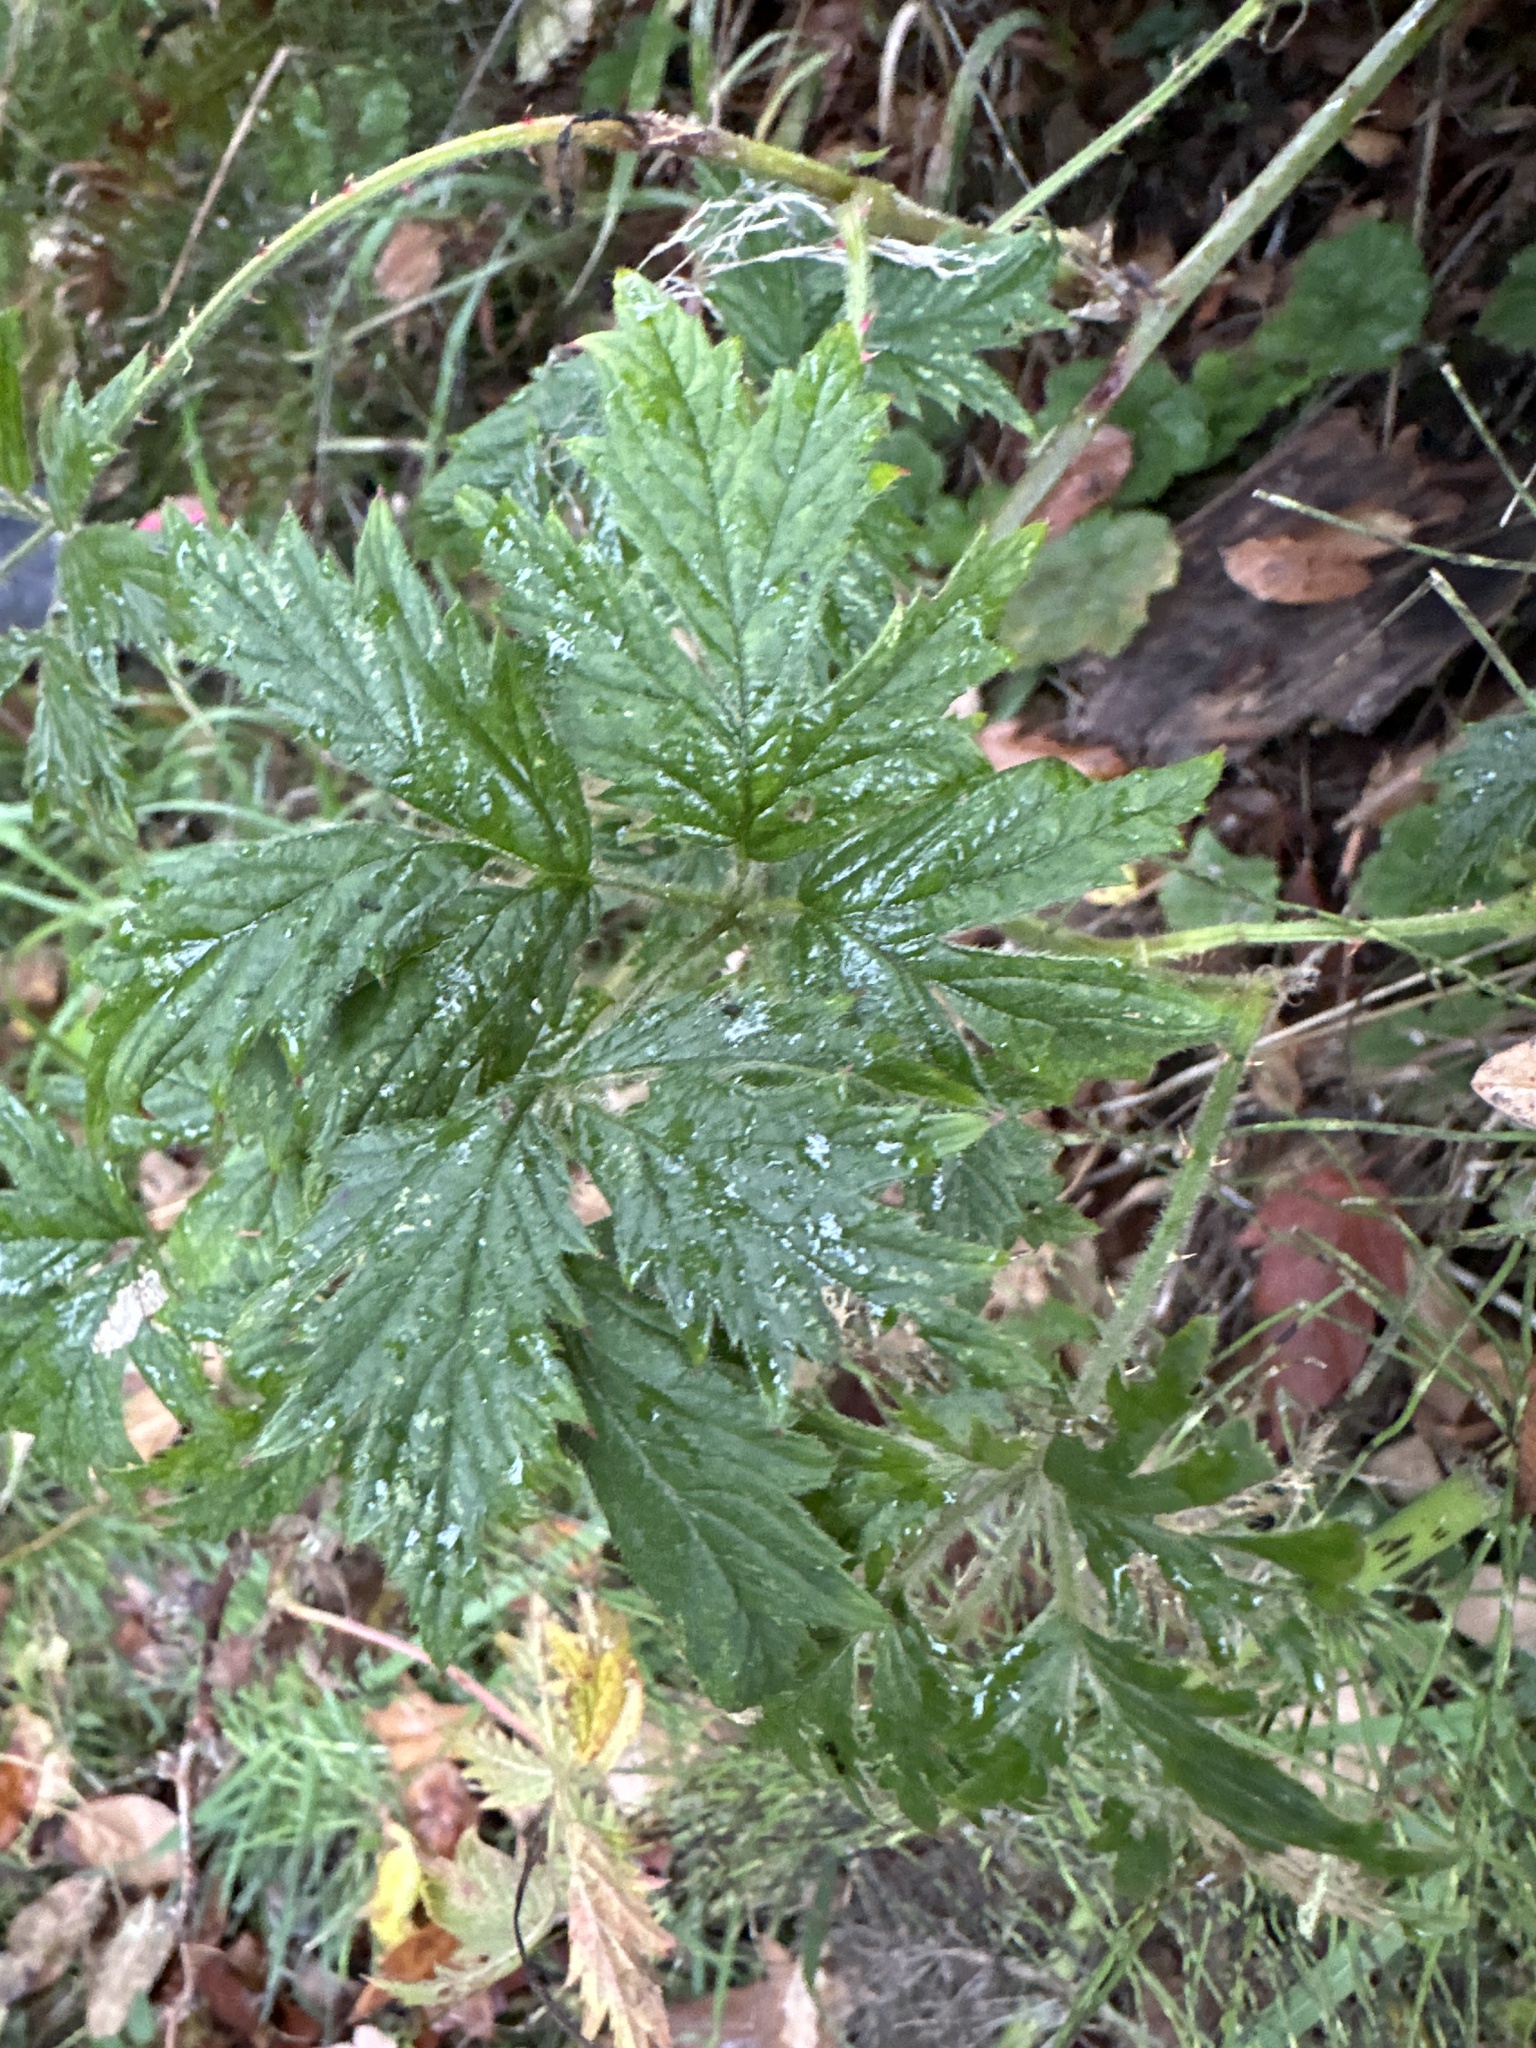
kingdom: Plantae
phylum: Tracheophyta
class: Magnoliopsida
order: Rosales
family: Rosaceae
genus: Rubus
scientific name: Rubus laciniatus
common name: Evergreen blackberry
